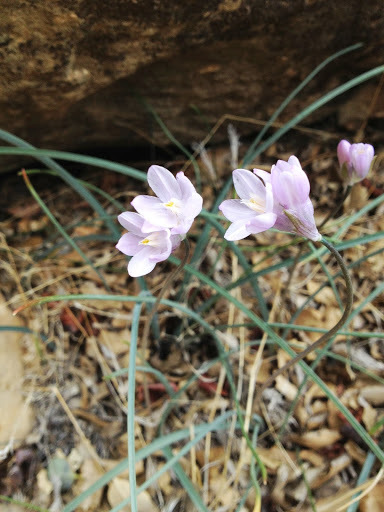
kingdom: Plantae
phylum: Tracheophyta
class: Liliopsida
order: Asparagales
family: Asparagaceae
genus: Dipterostemon
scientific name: Dipterostemon capitatus
